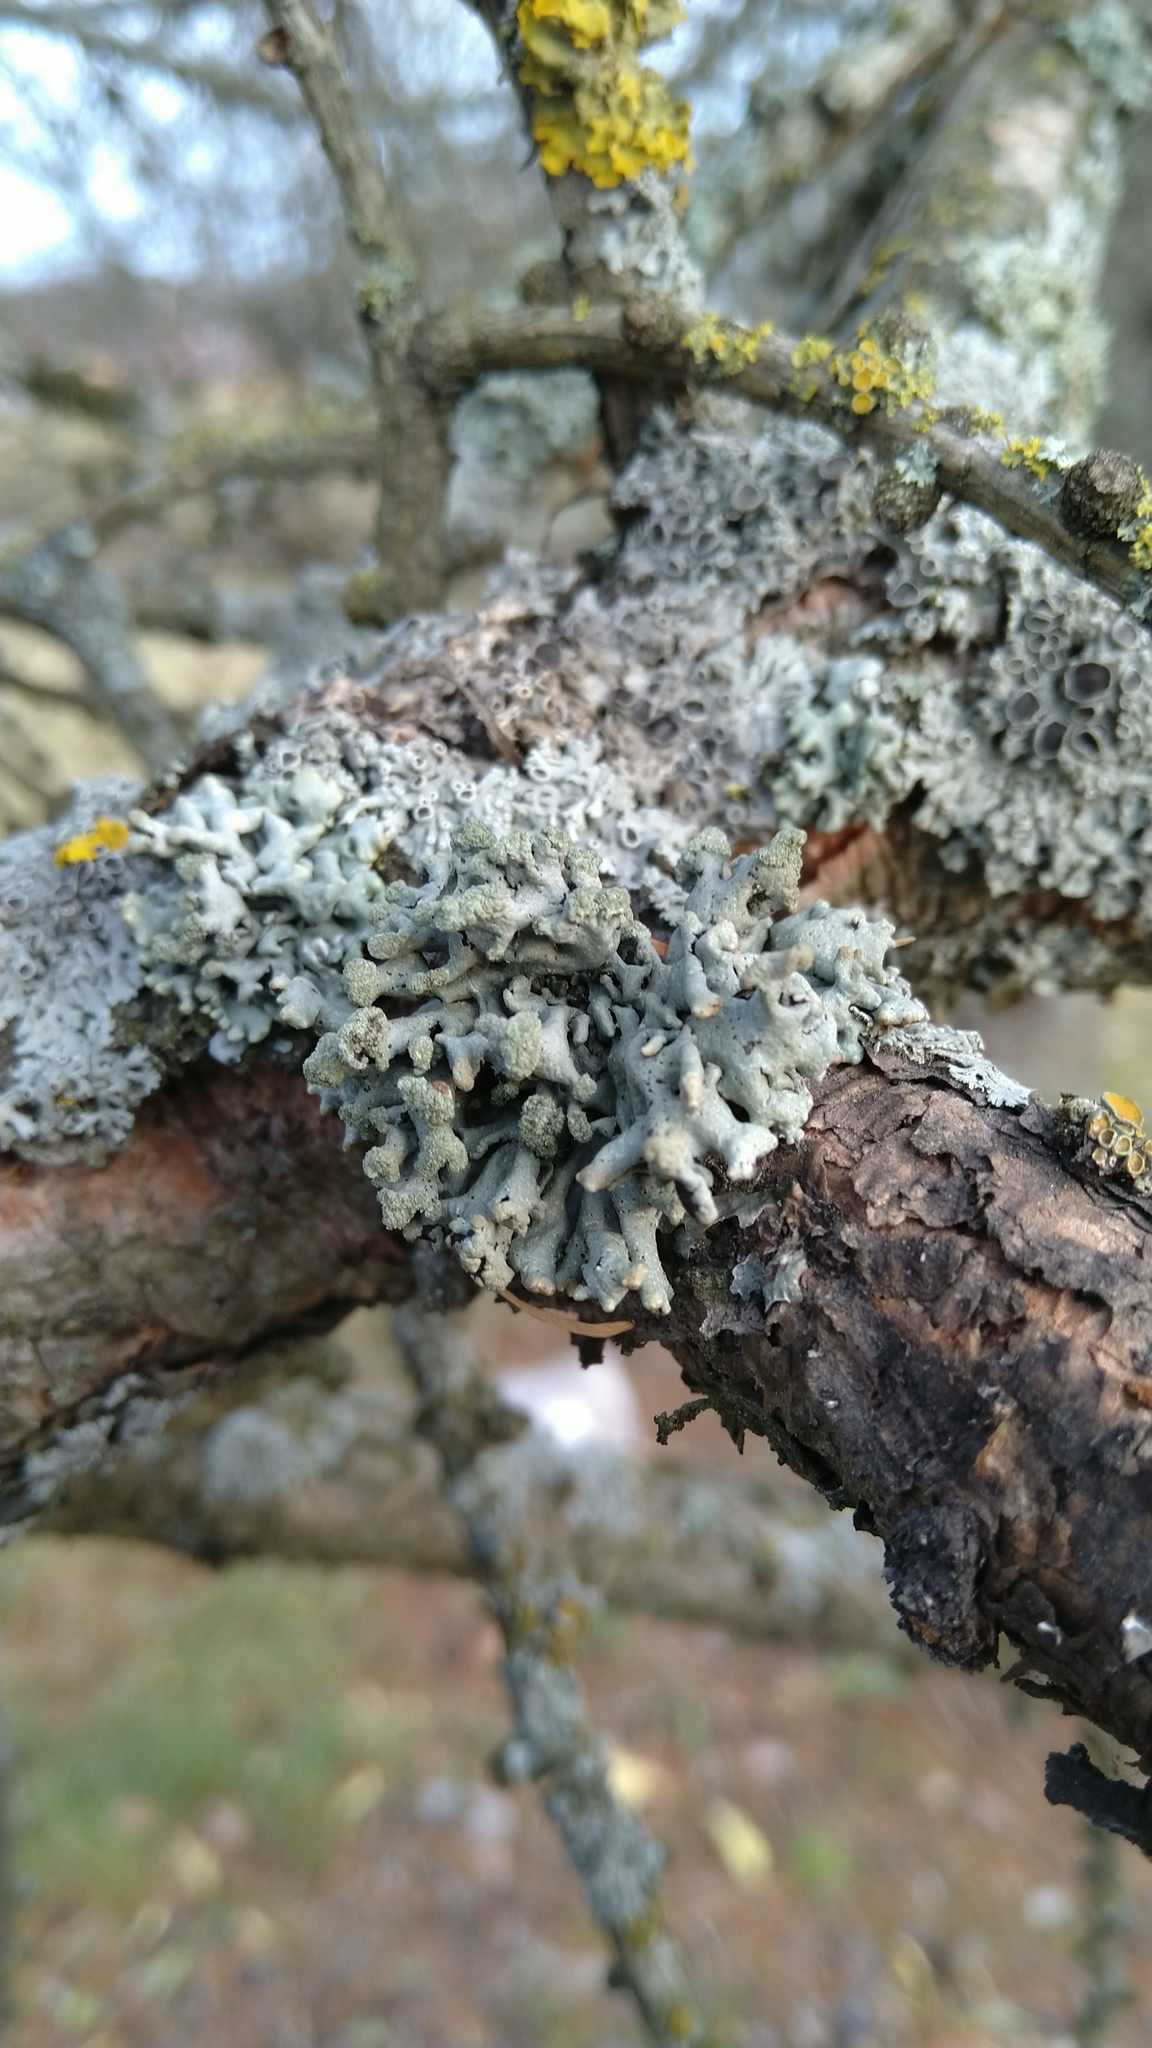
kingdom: Fungi
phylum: Ascomycota
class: Lecanoromycetes
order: Lecanorales
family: Parmeliaceae
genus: Hypogymnia
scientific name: Hypogymnia tubulosa
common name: Powder-headed tube lichen
